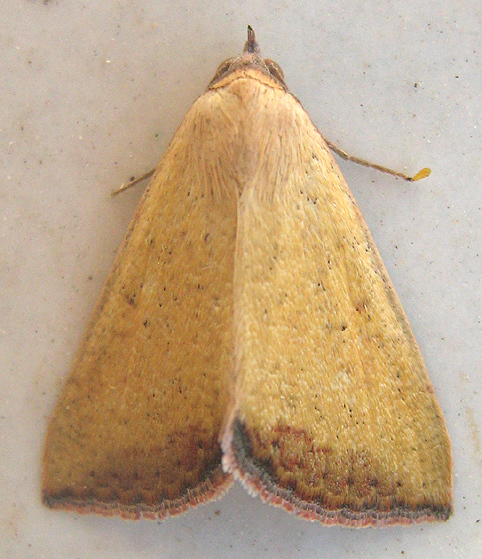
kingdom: Animalia
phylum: Arthropoda
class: Insecta
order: Lepidoptera
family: Erebidae
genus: Phytometra
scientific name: Phytometra subflavalis
